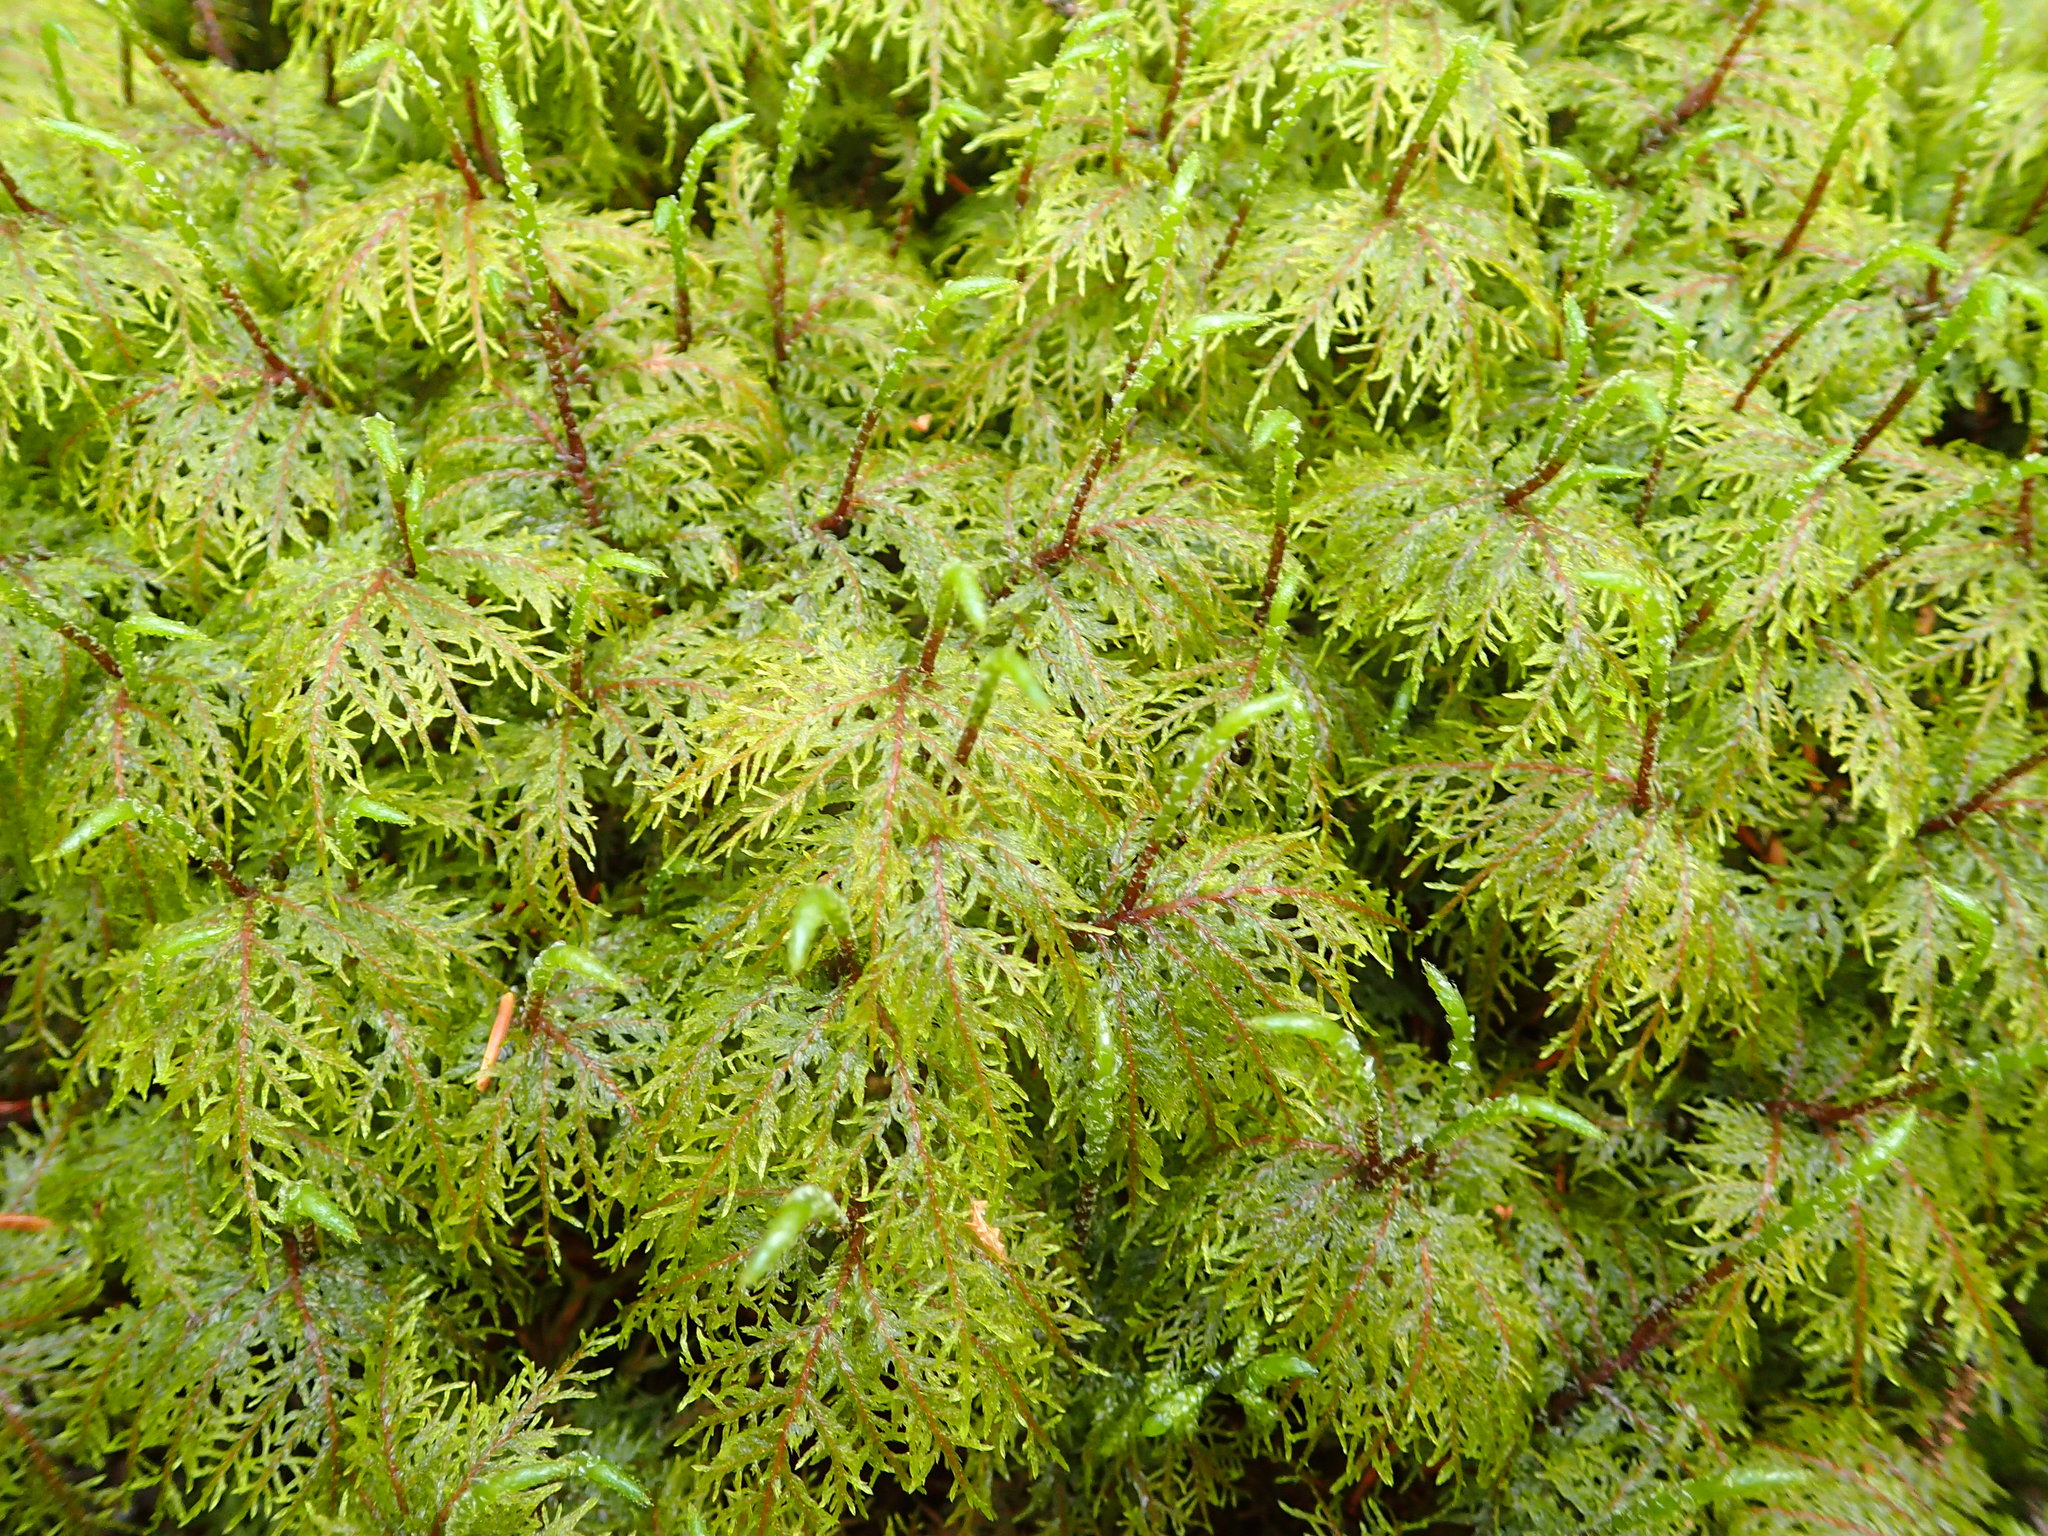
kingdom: Plantae
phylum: Bryophyta
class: Bryopsida
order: Hypnales
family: Hylocomiaceae
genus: Hylocomium
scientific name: Hylocomium splendens
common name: Stairstep moss
